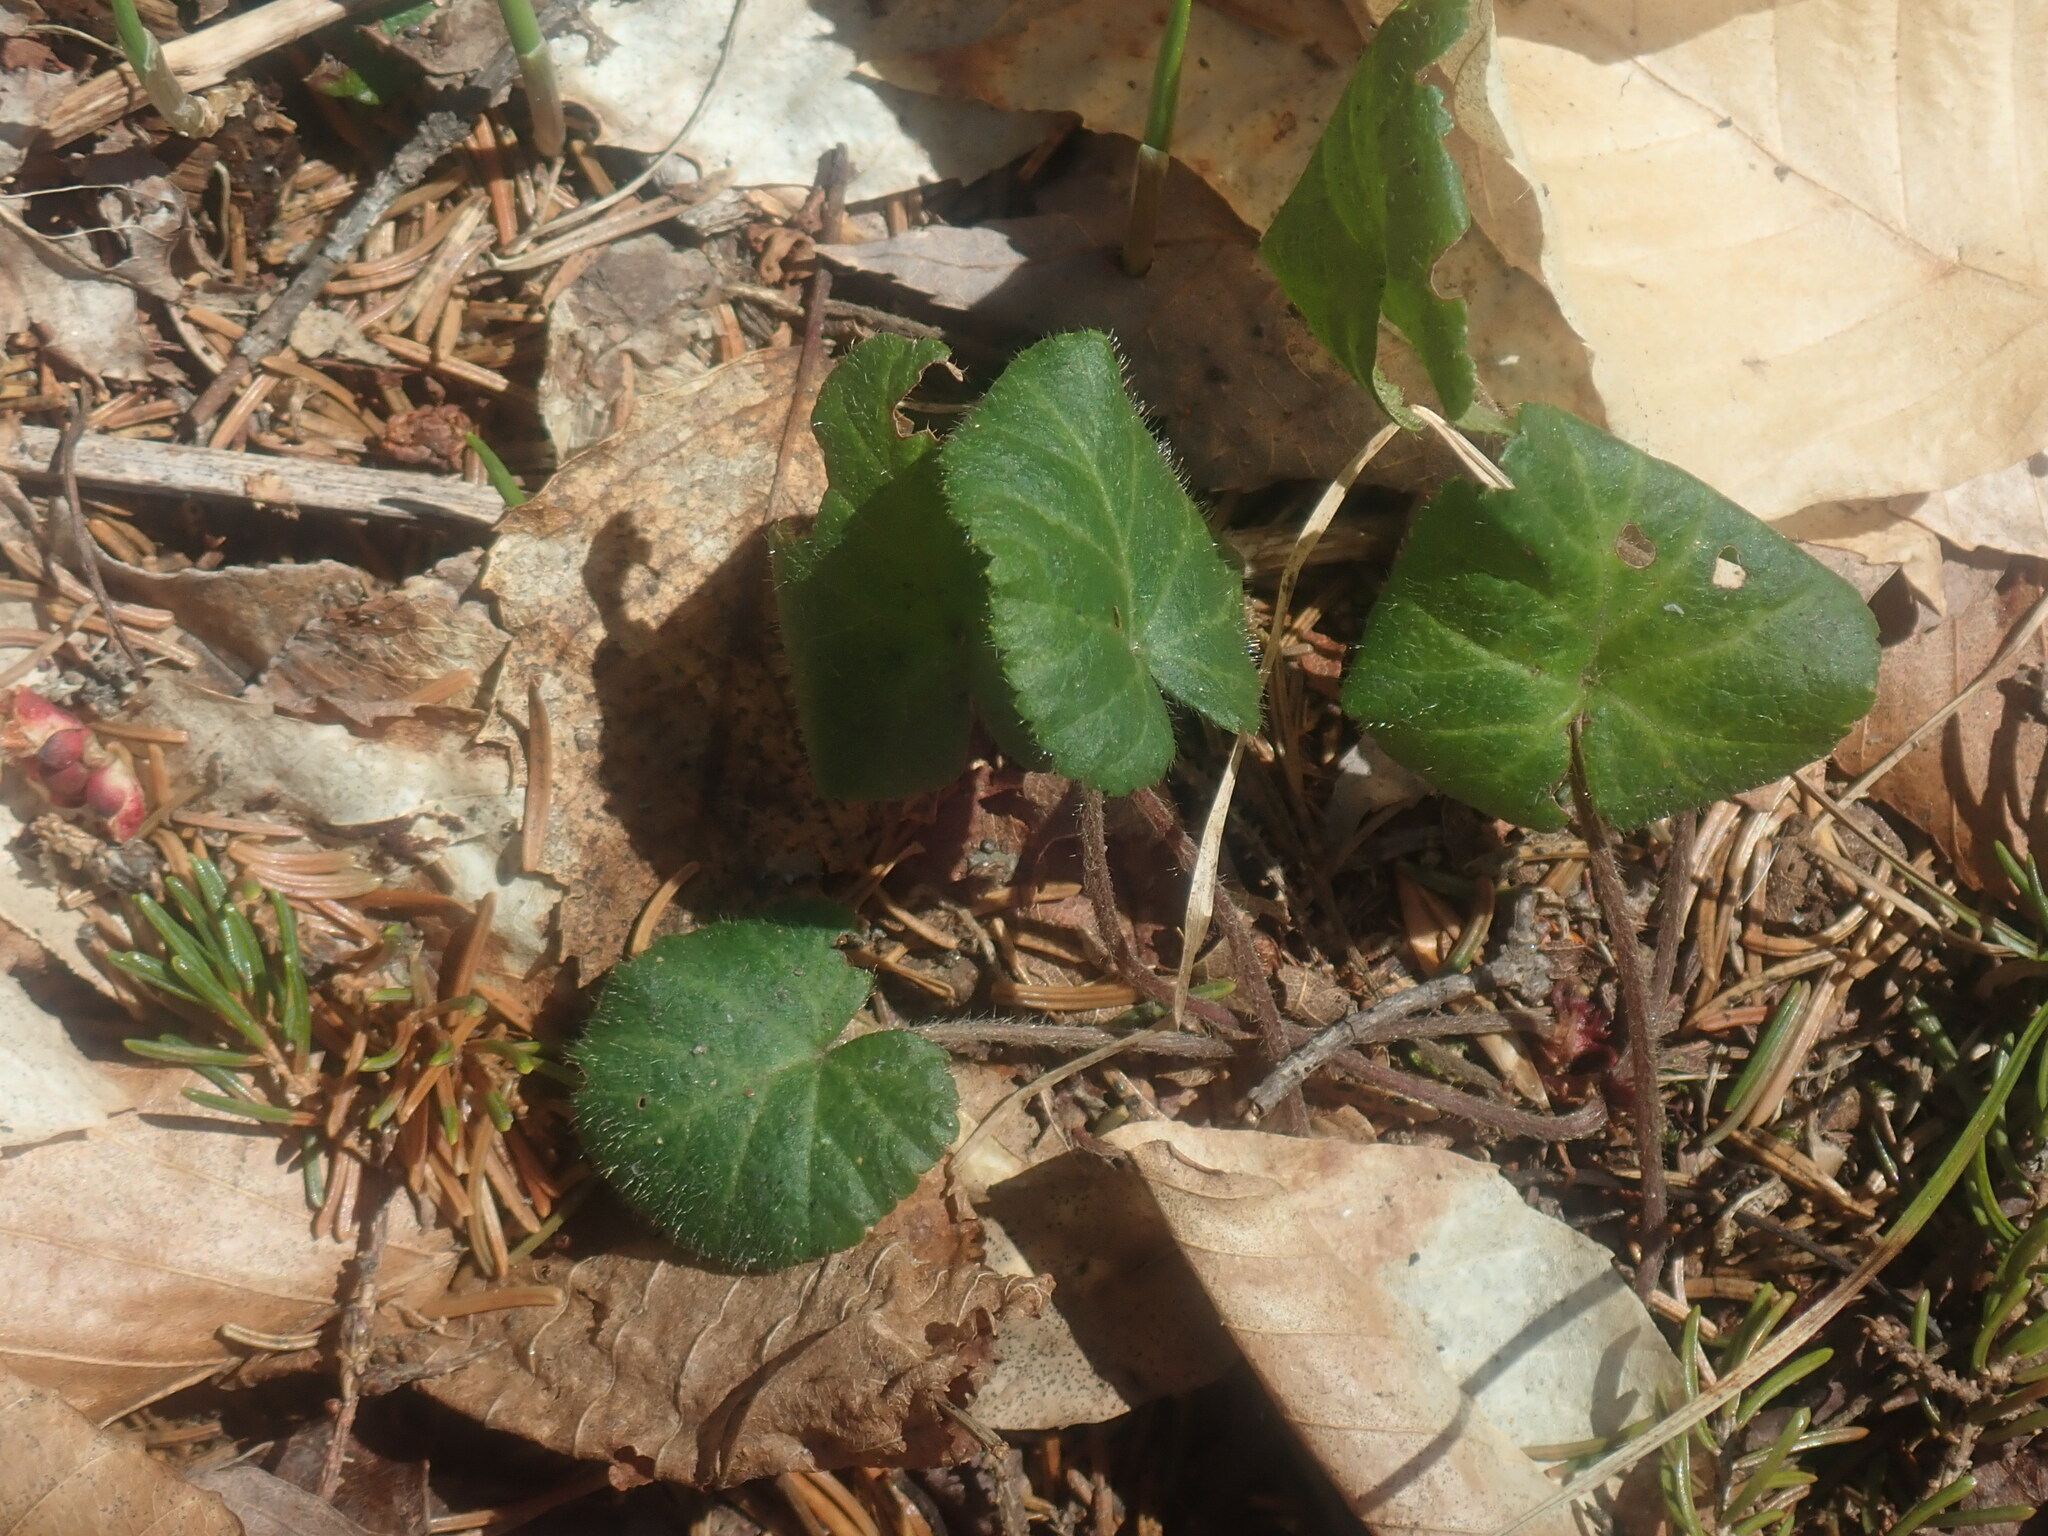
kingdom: Plantae
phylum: Tracheophyta
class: Magnoliopsida
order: Rosales
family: Rosaceae
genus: Dalibarda
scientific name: Dalibarda repens
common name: Dewdrop
